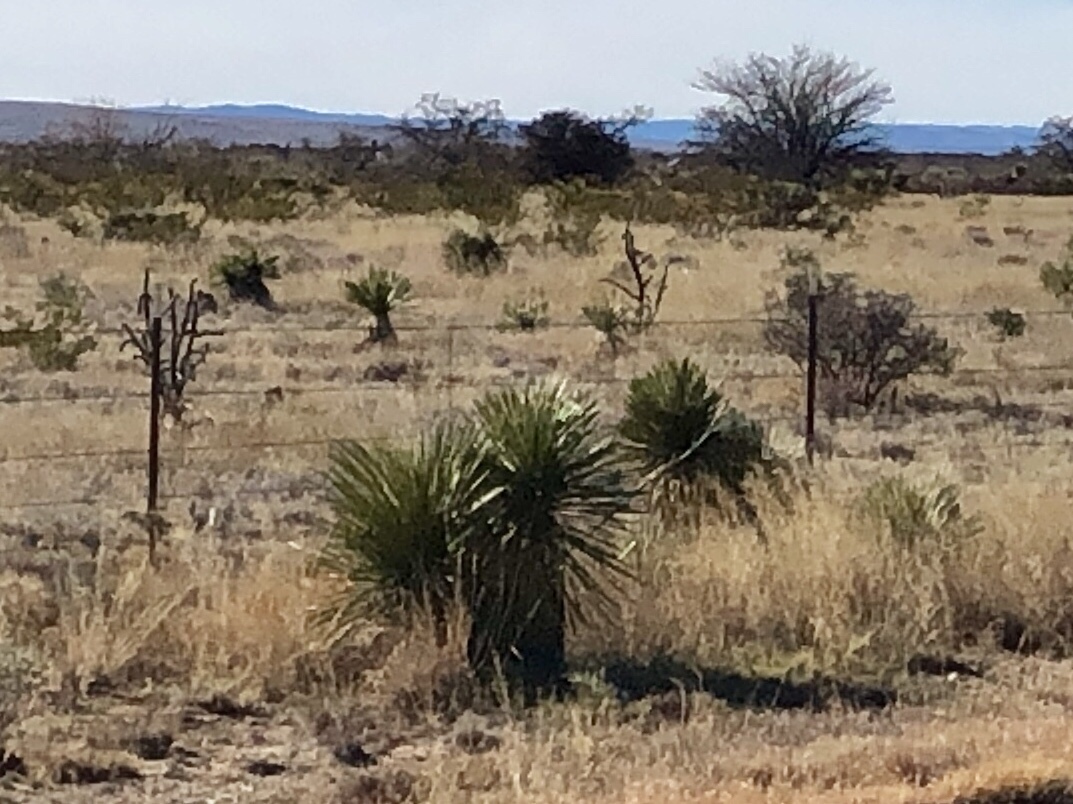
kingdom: Plantae
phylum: Tracheophyta
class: Liliopsida
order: Asparagales
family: Asparagaceae
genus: Yucca
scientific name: Yucca elata
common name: Palmella
